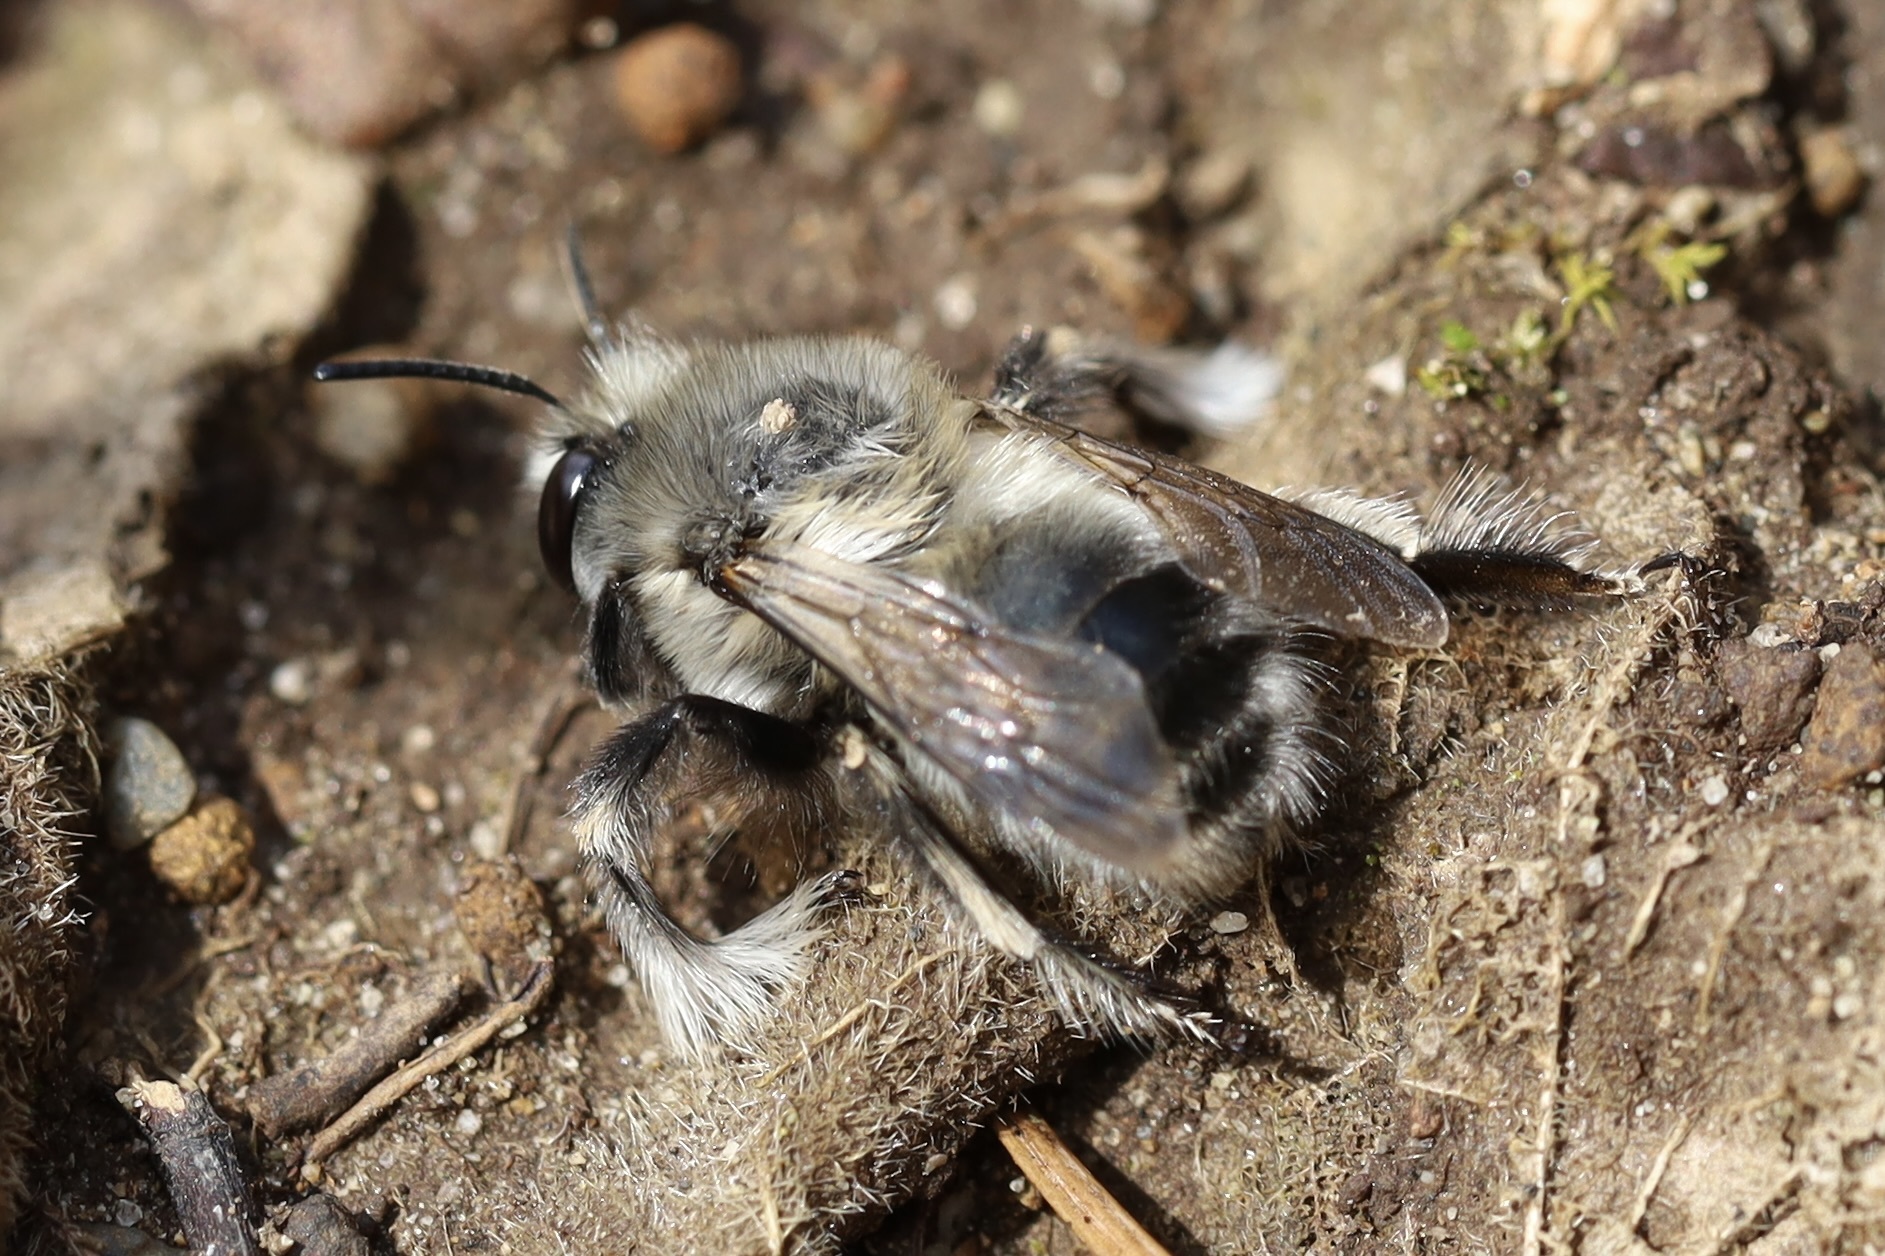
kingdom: Animalia
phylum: Arthropoda
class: Insecta
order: Hymenoptera
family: Apidae
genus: Anthophora
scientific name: Anthophora pacifica
